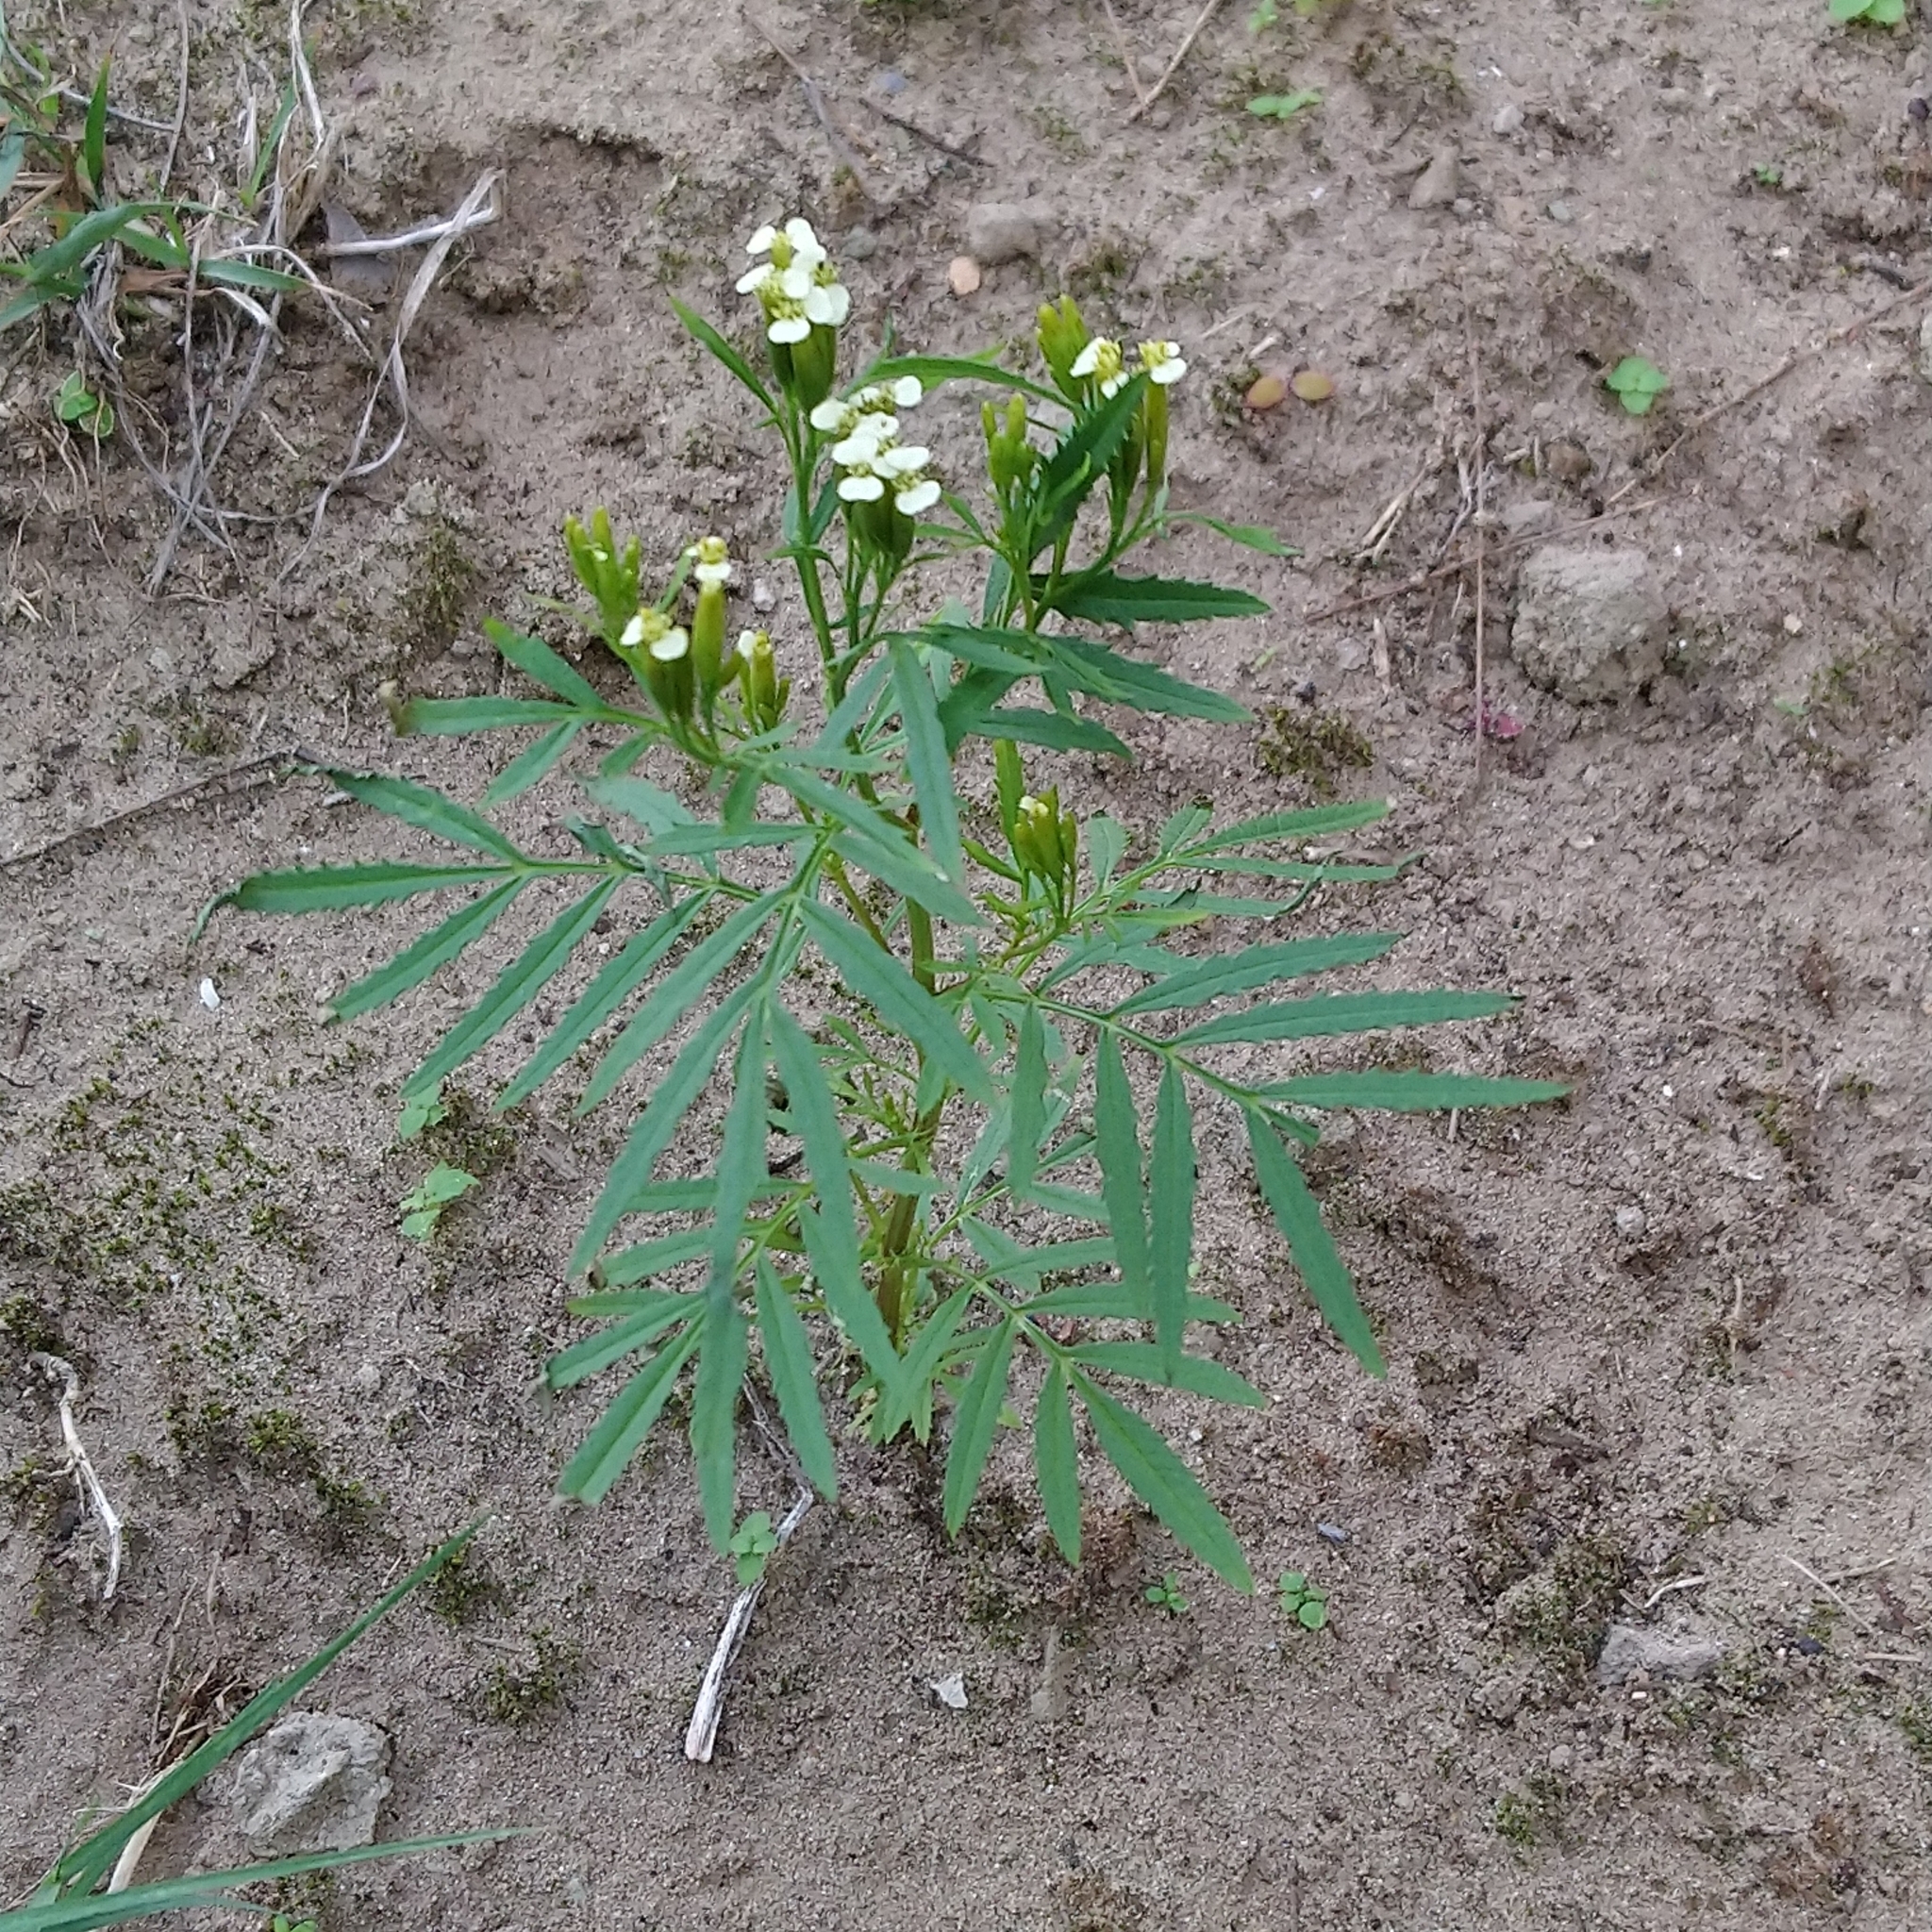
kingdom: Plantae
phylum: Tracheophyta
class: Magnoliopsida
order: Asterales
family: Asteraceae
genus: Tagetes
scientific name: Tagetes minuta
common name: Muster john henry
